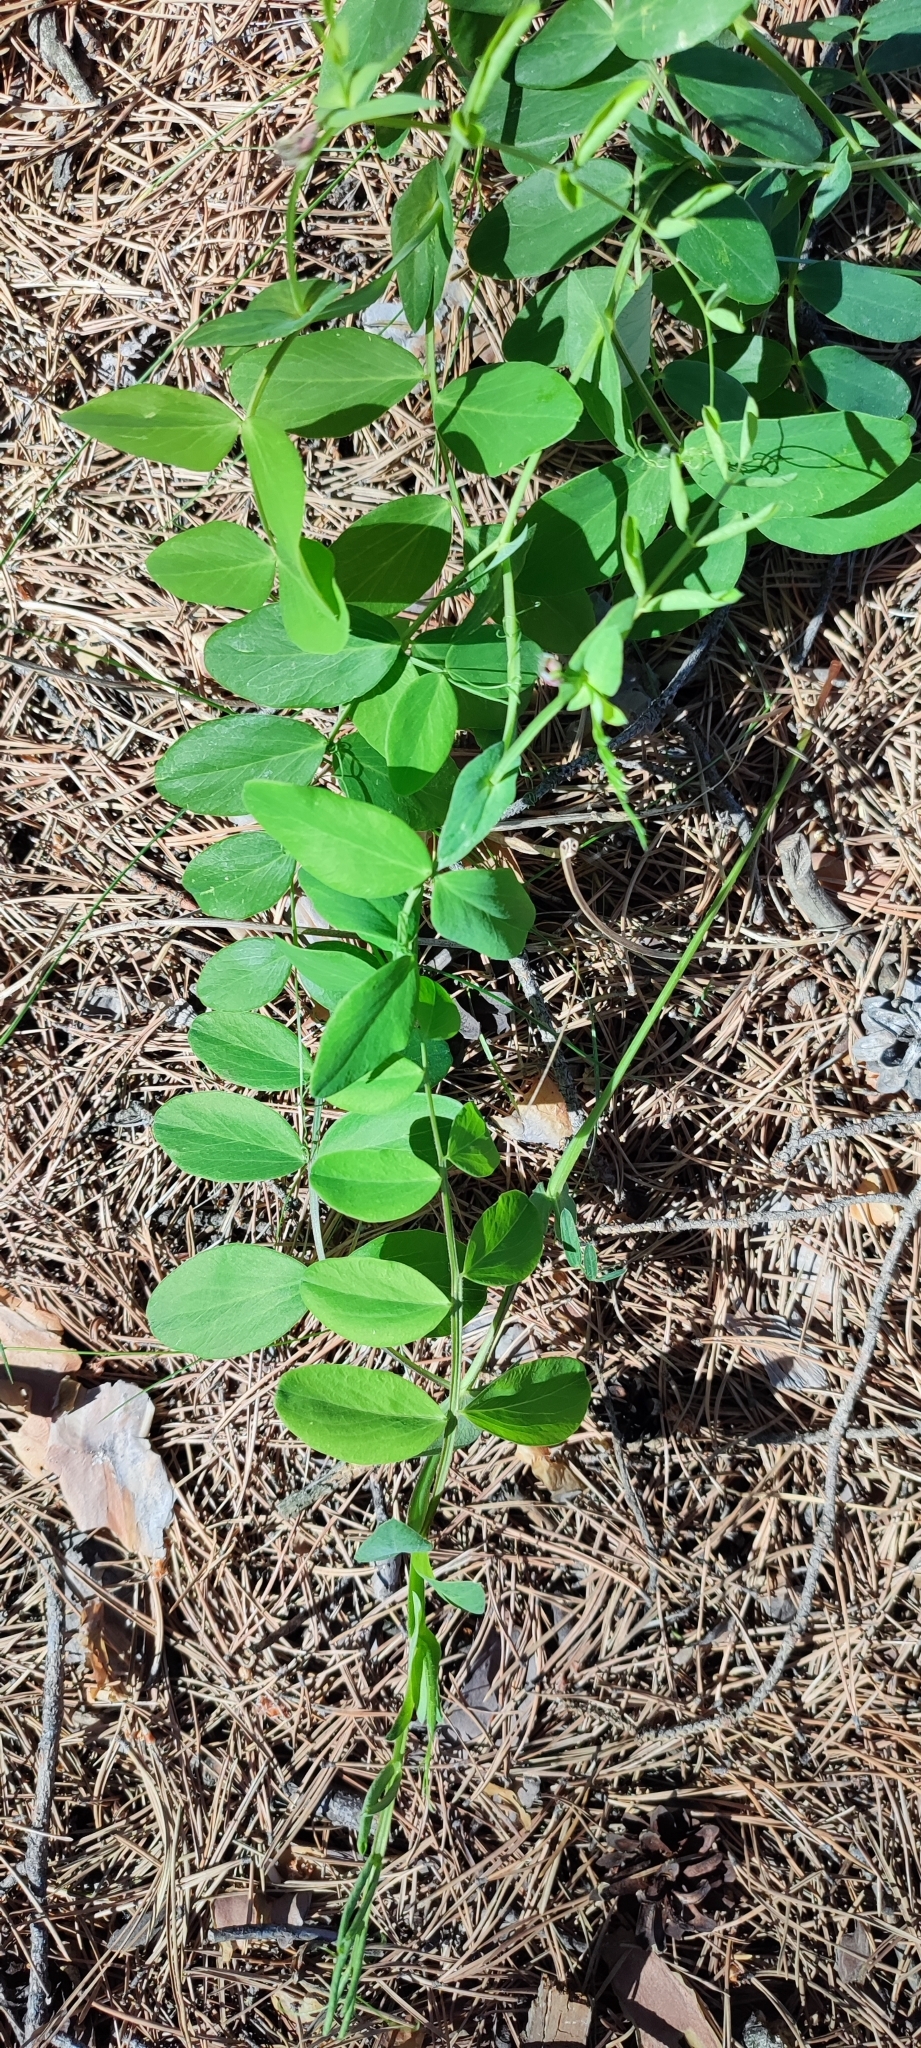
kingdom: Plantae
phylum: Tracheophyta
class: Magnoliopsida
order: Fabales
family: Fabaceae
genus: Lathyrus
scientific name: Lathyrus pisiformis
